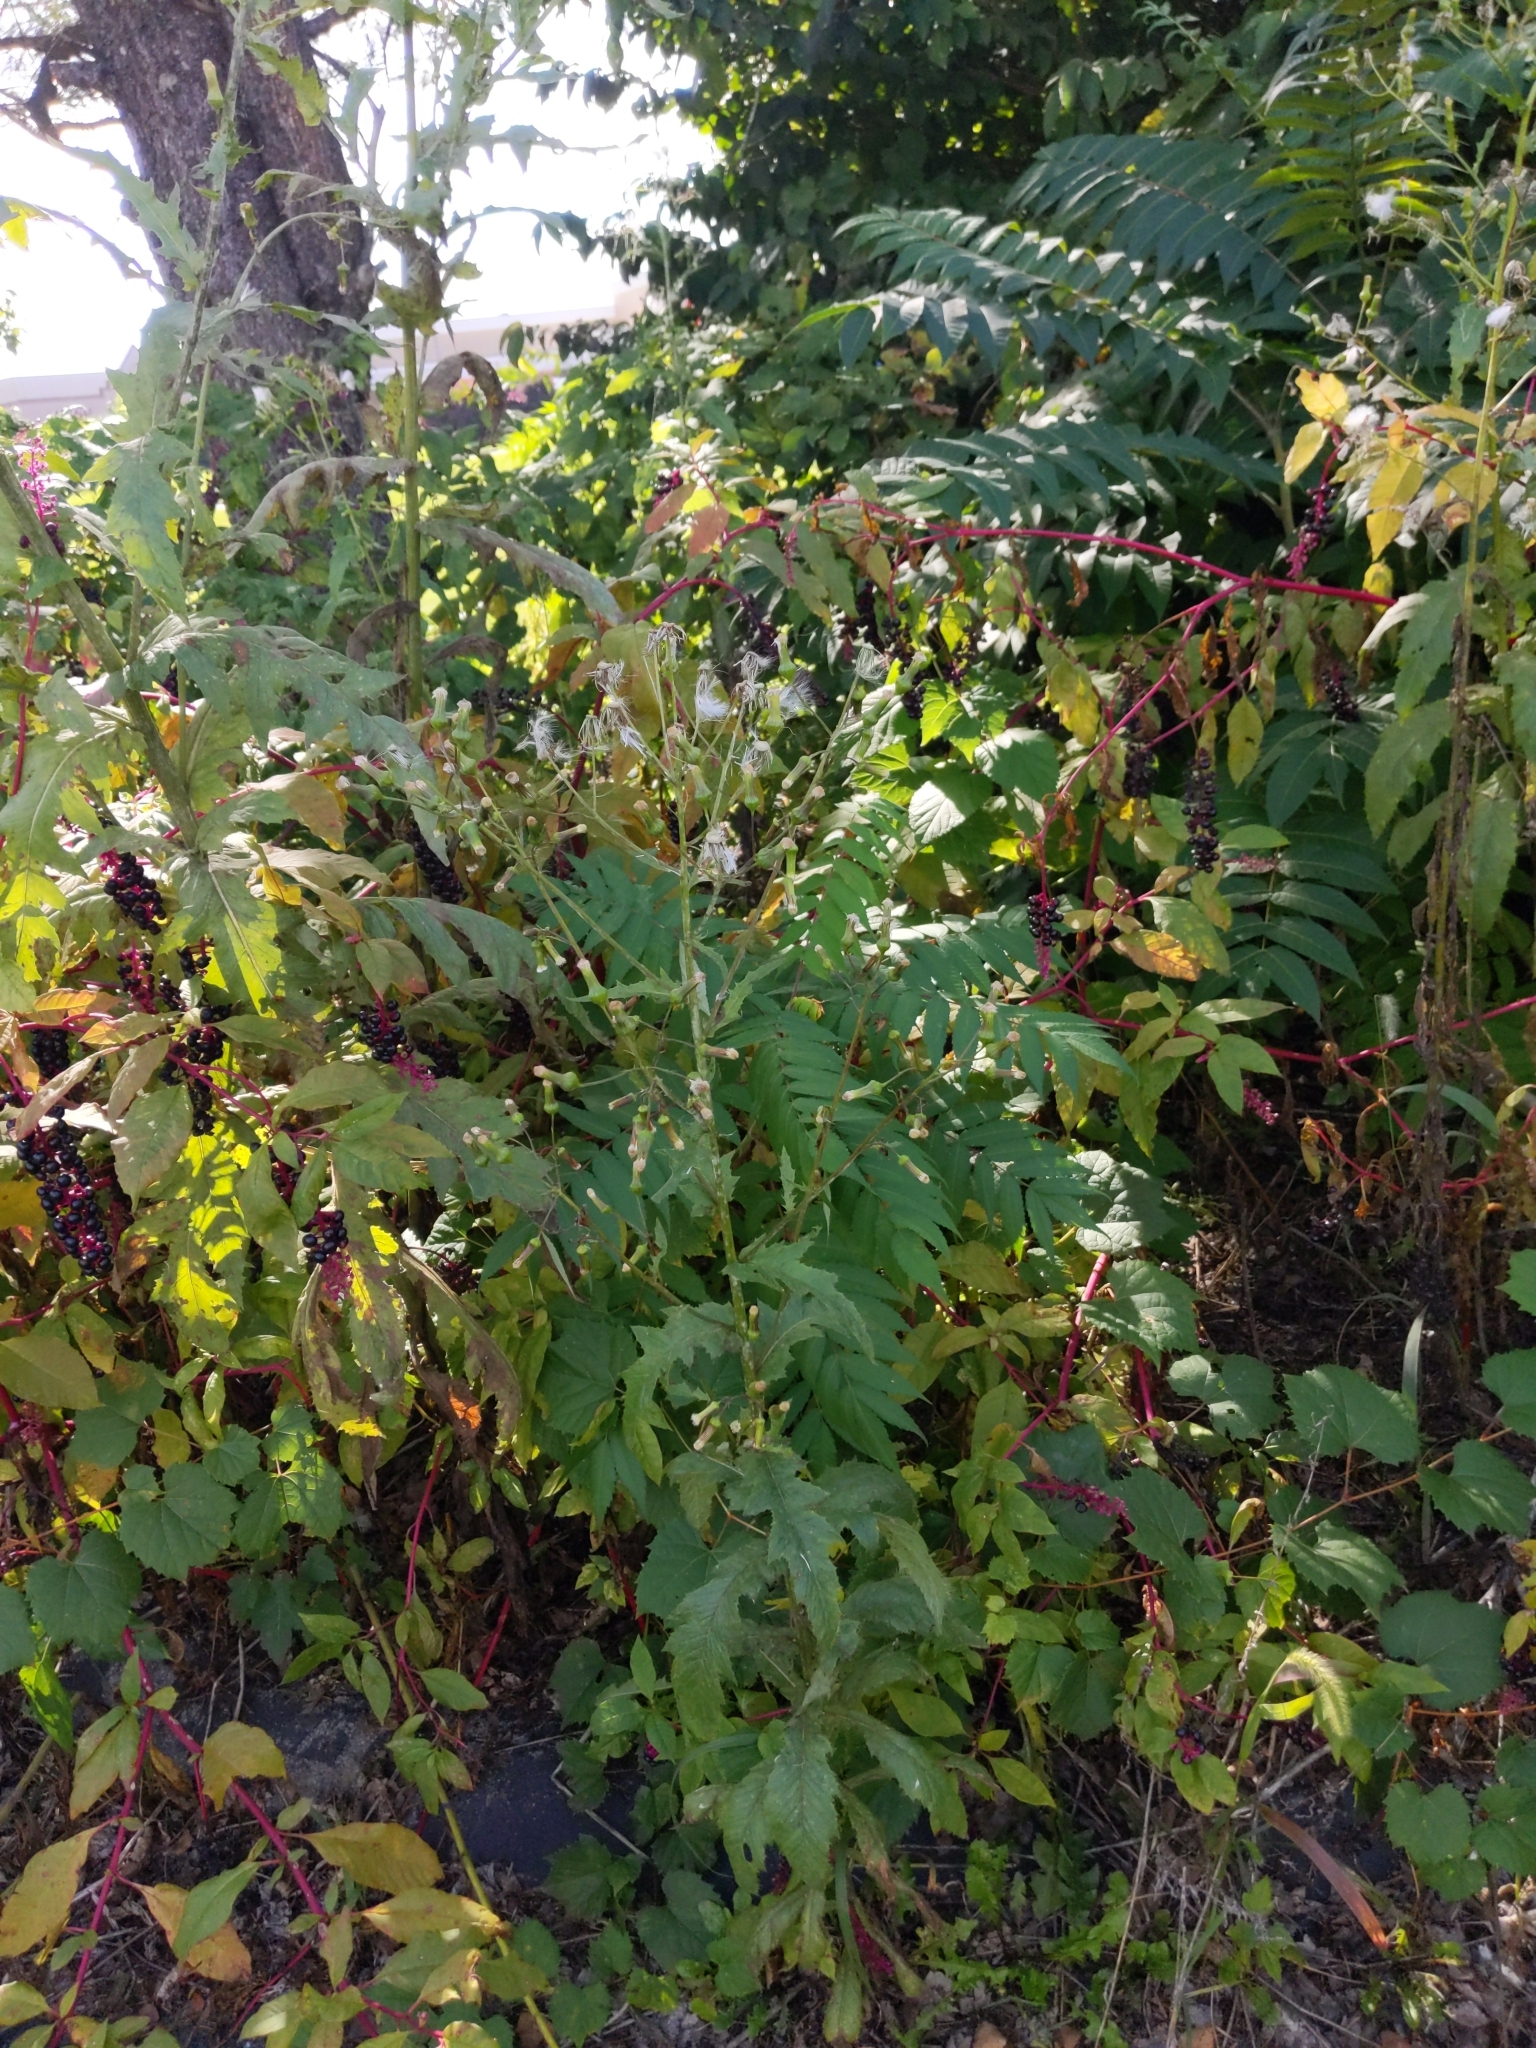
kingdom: Plantae
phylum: Tracheophyta
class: Magnoliopsida
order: Asterales
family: Asteraceae
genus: Erechtites
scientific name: Erechtites hieraciifolius
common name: American burnweed
